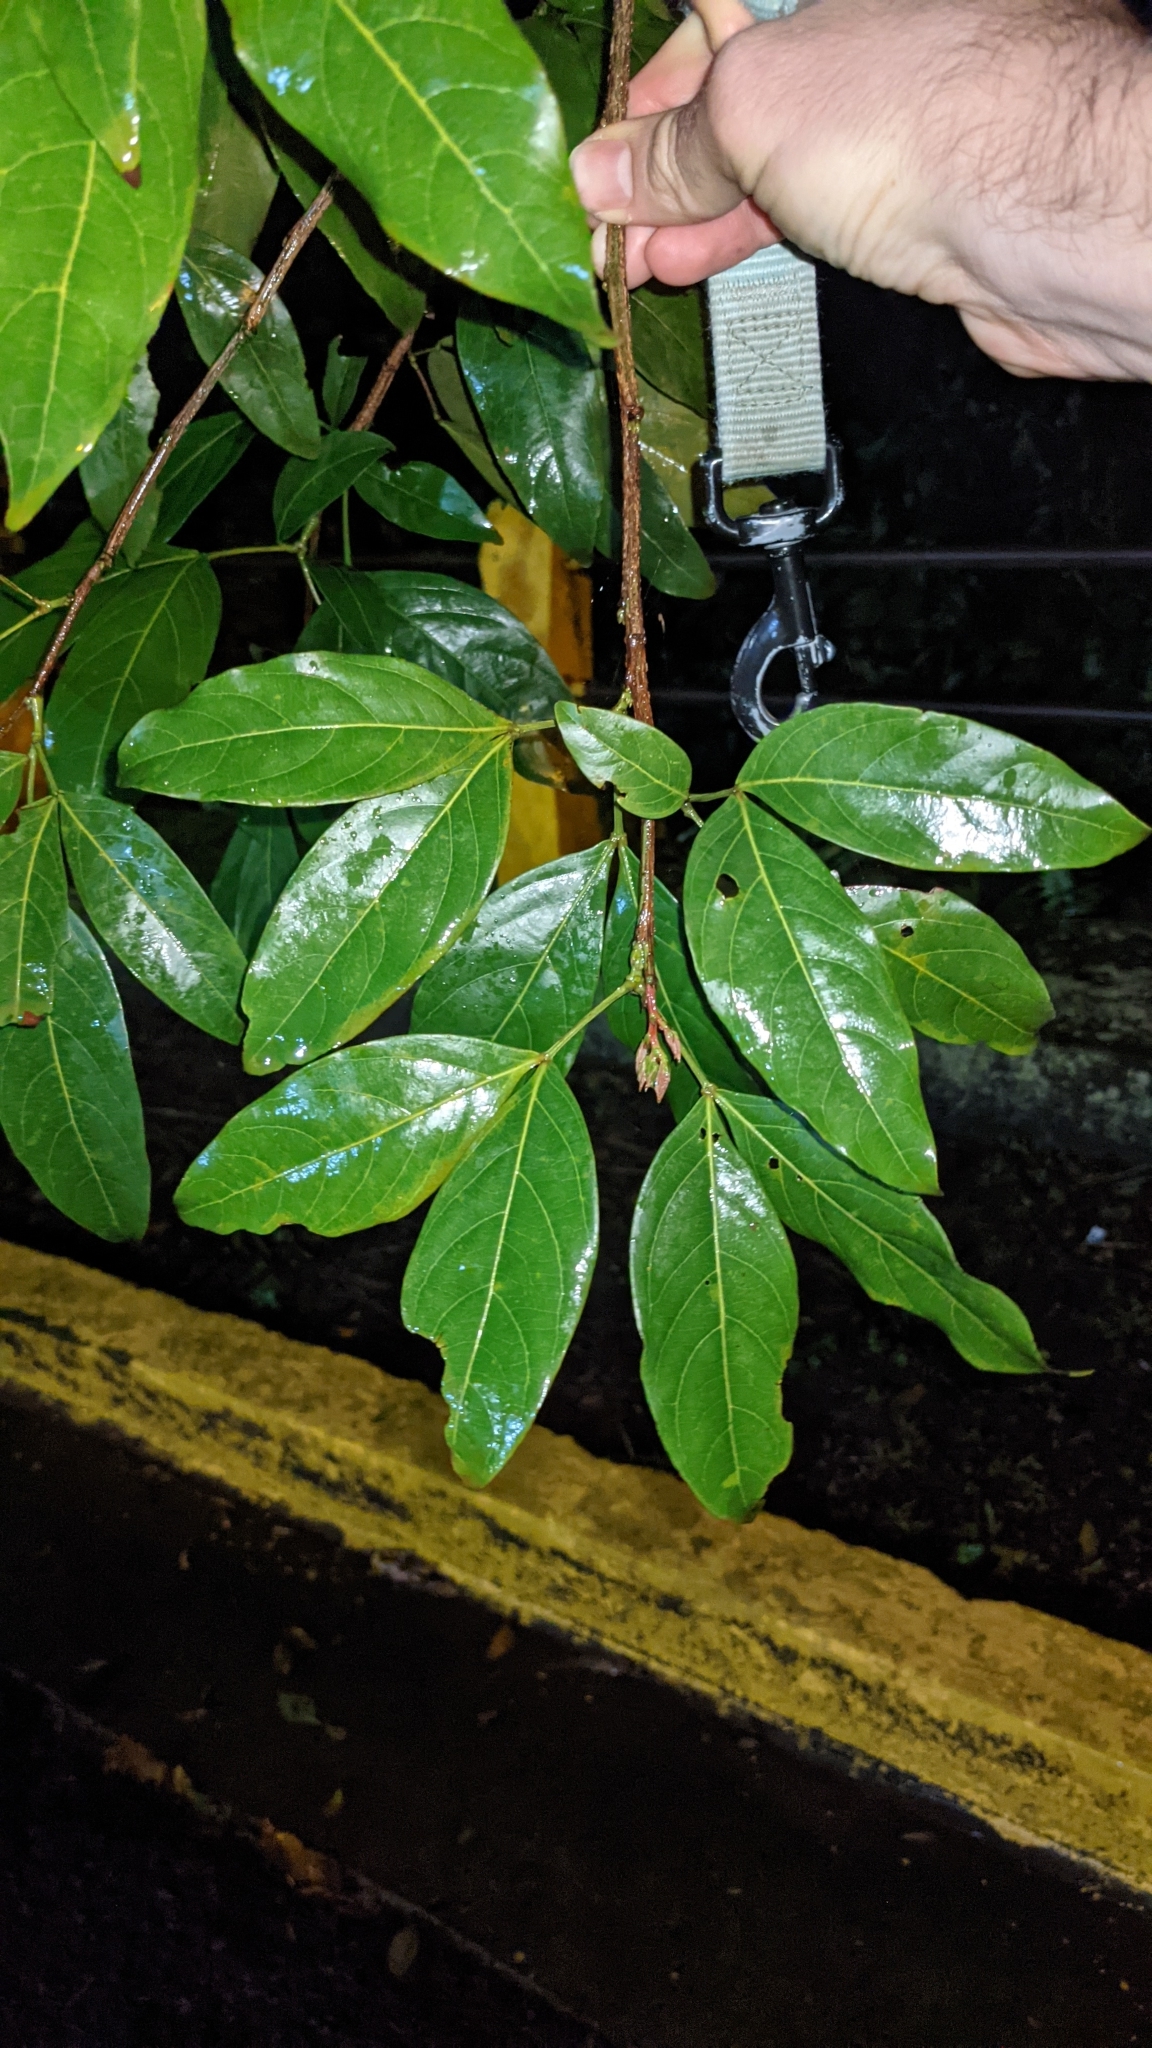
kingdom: Plantae
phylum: Tracheophyta
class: Magnoliopsida
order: Fabales
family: Fabaceae
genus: Zygia
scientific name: Zygia longifolia
